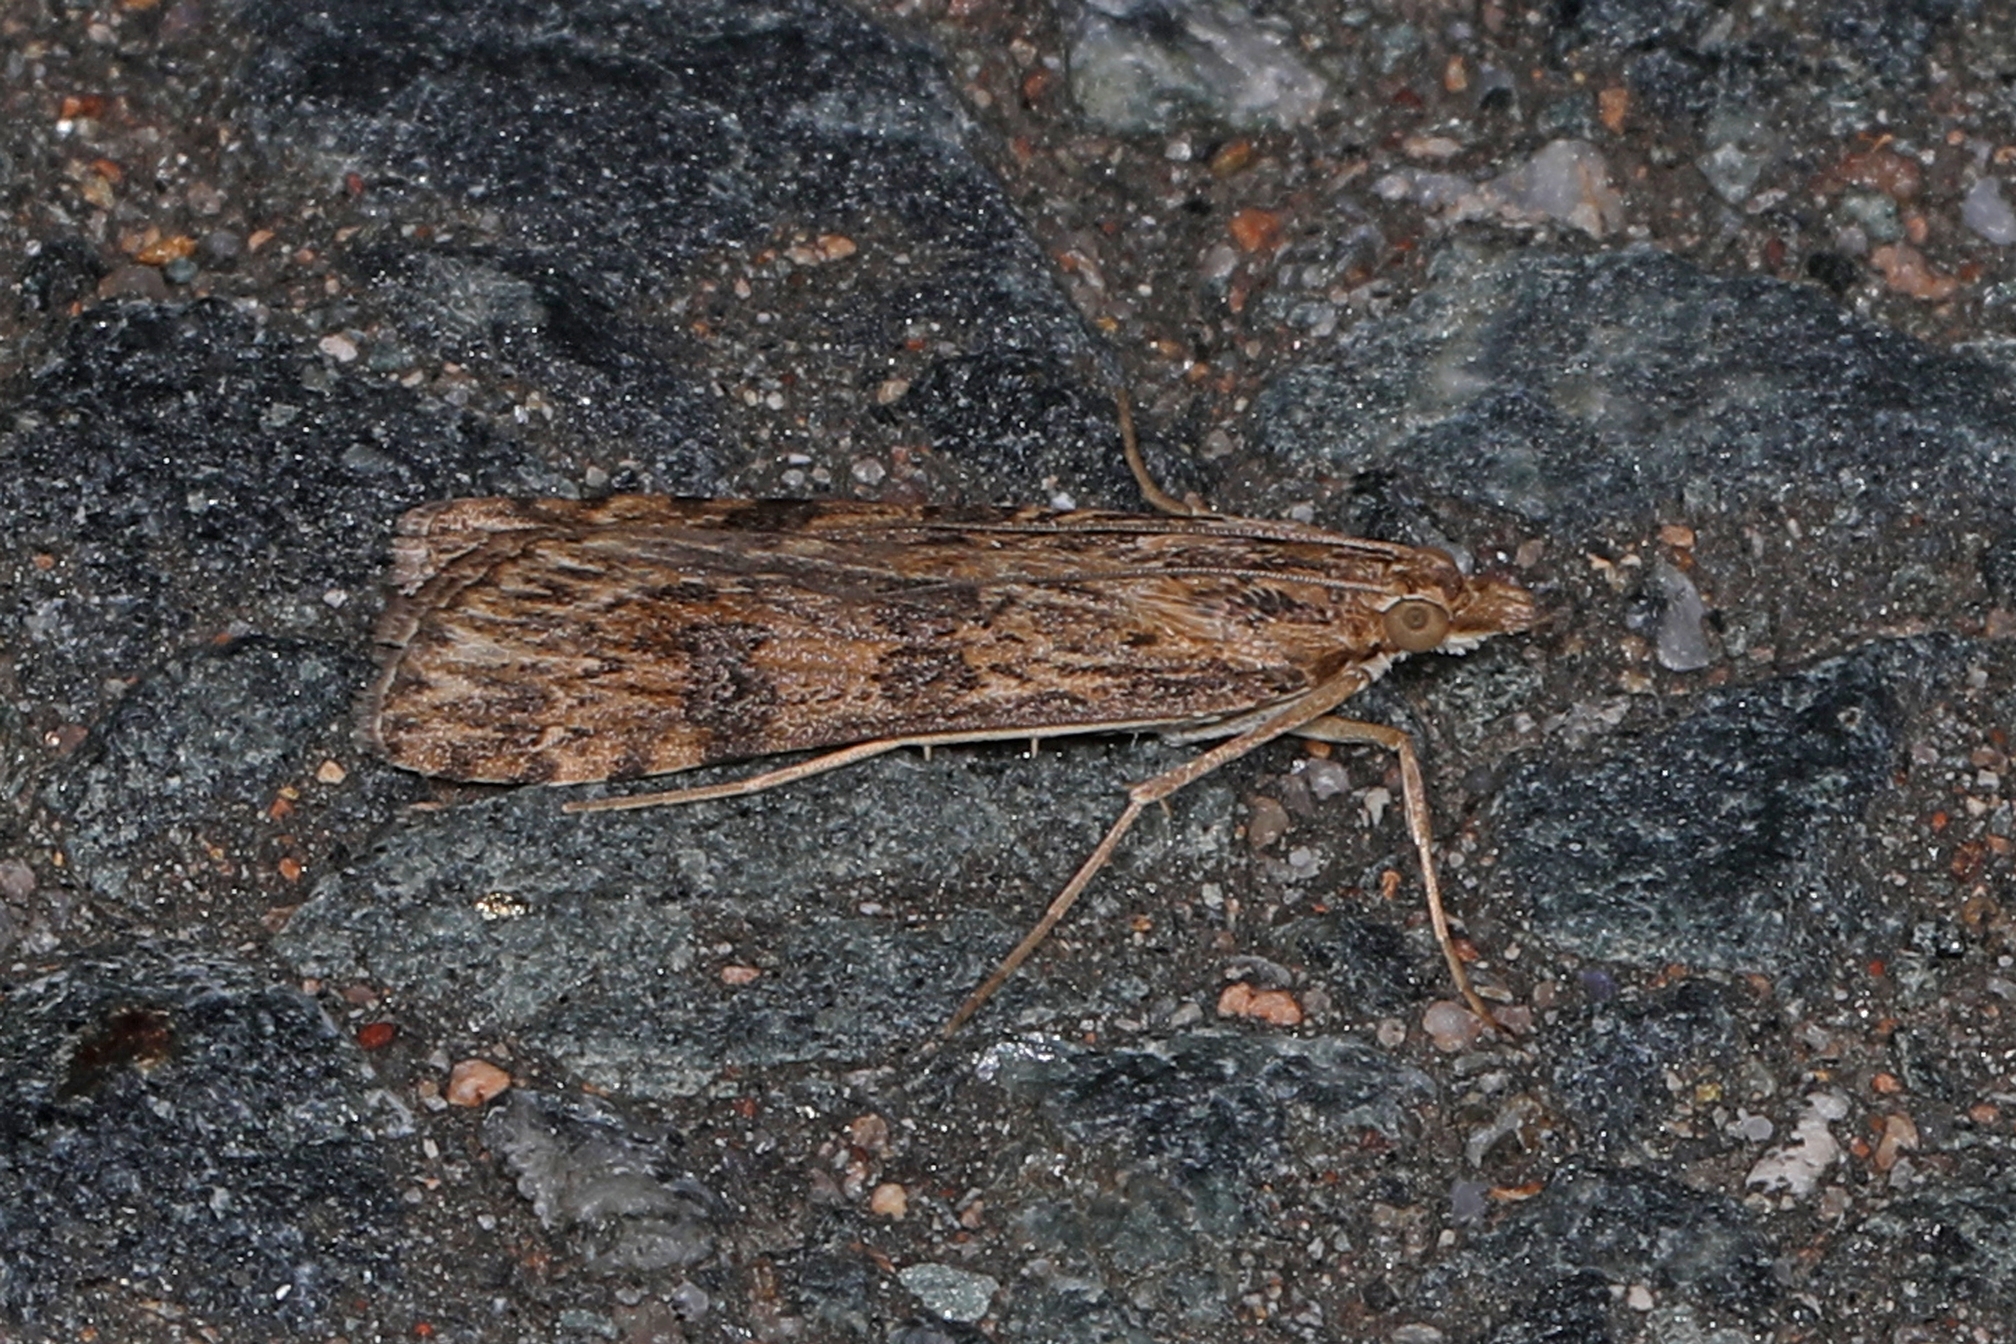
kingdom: Animalia
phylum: Arthropoda
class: Insecta
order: Lepidoptera
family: Crambidae
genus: Nomophila
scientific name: Nomophila nearctica
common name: American rush veneer
